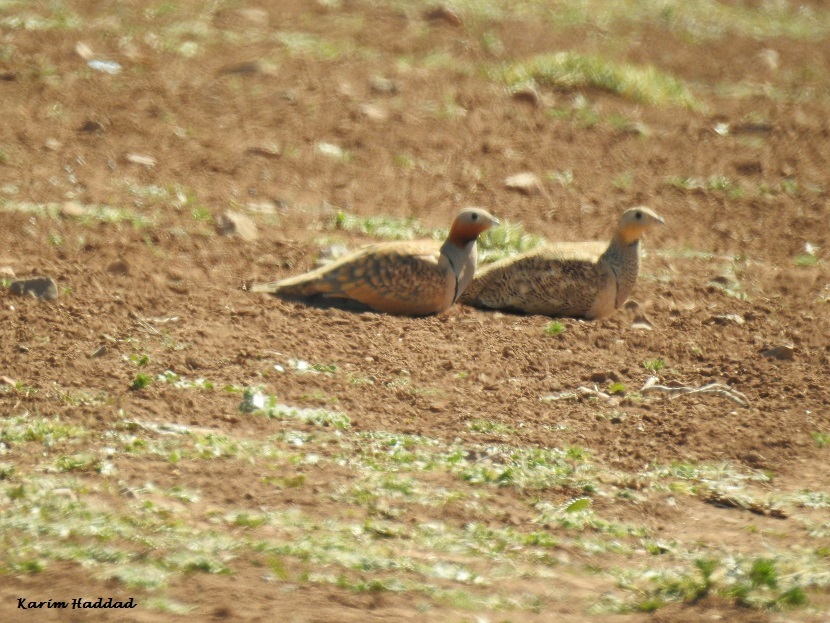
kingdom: Animalia
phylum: Chordata
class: Aves
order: Pteroclidiformes
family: Pteroclididae
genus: Pterocles
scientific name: Pterocles orientalis
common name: Black-bellied sandgrouse
